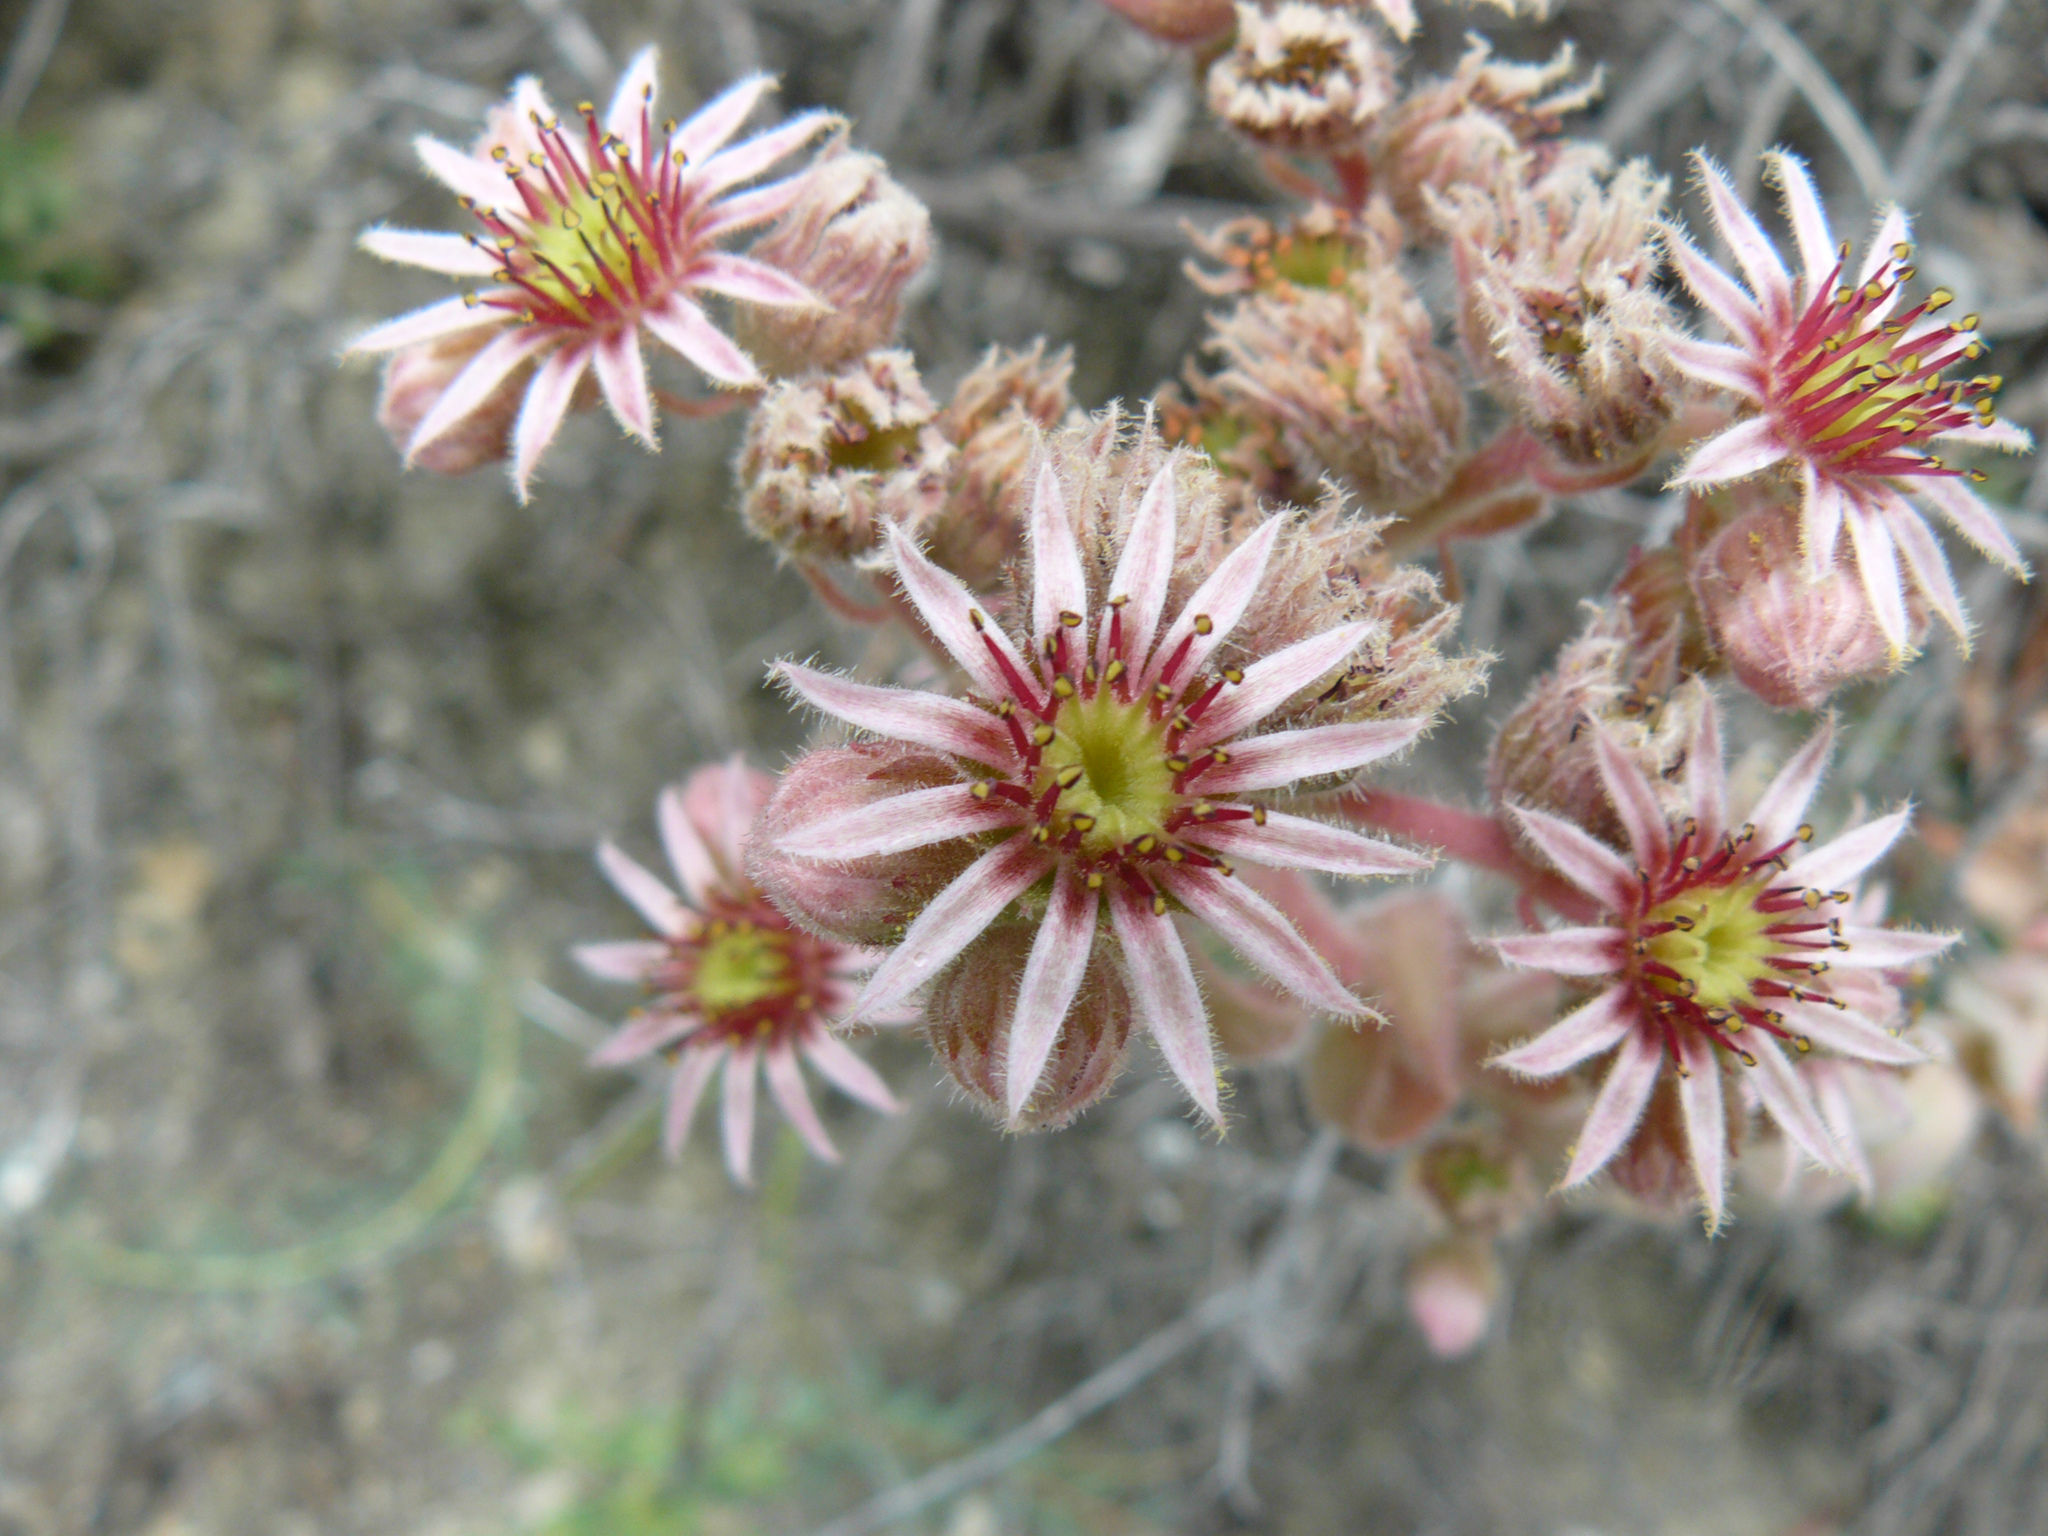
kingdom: Plantae
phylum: Tracheophyta
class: Magnoliopsida
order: Saxifragales
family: Crassulaceae
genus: Sempervivum
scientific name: Sempervivum tectorum
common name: House-leek
